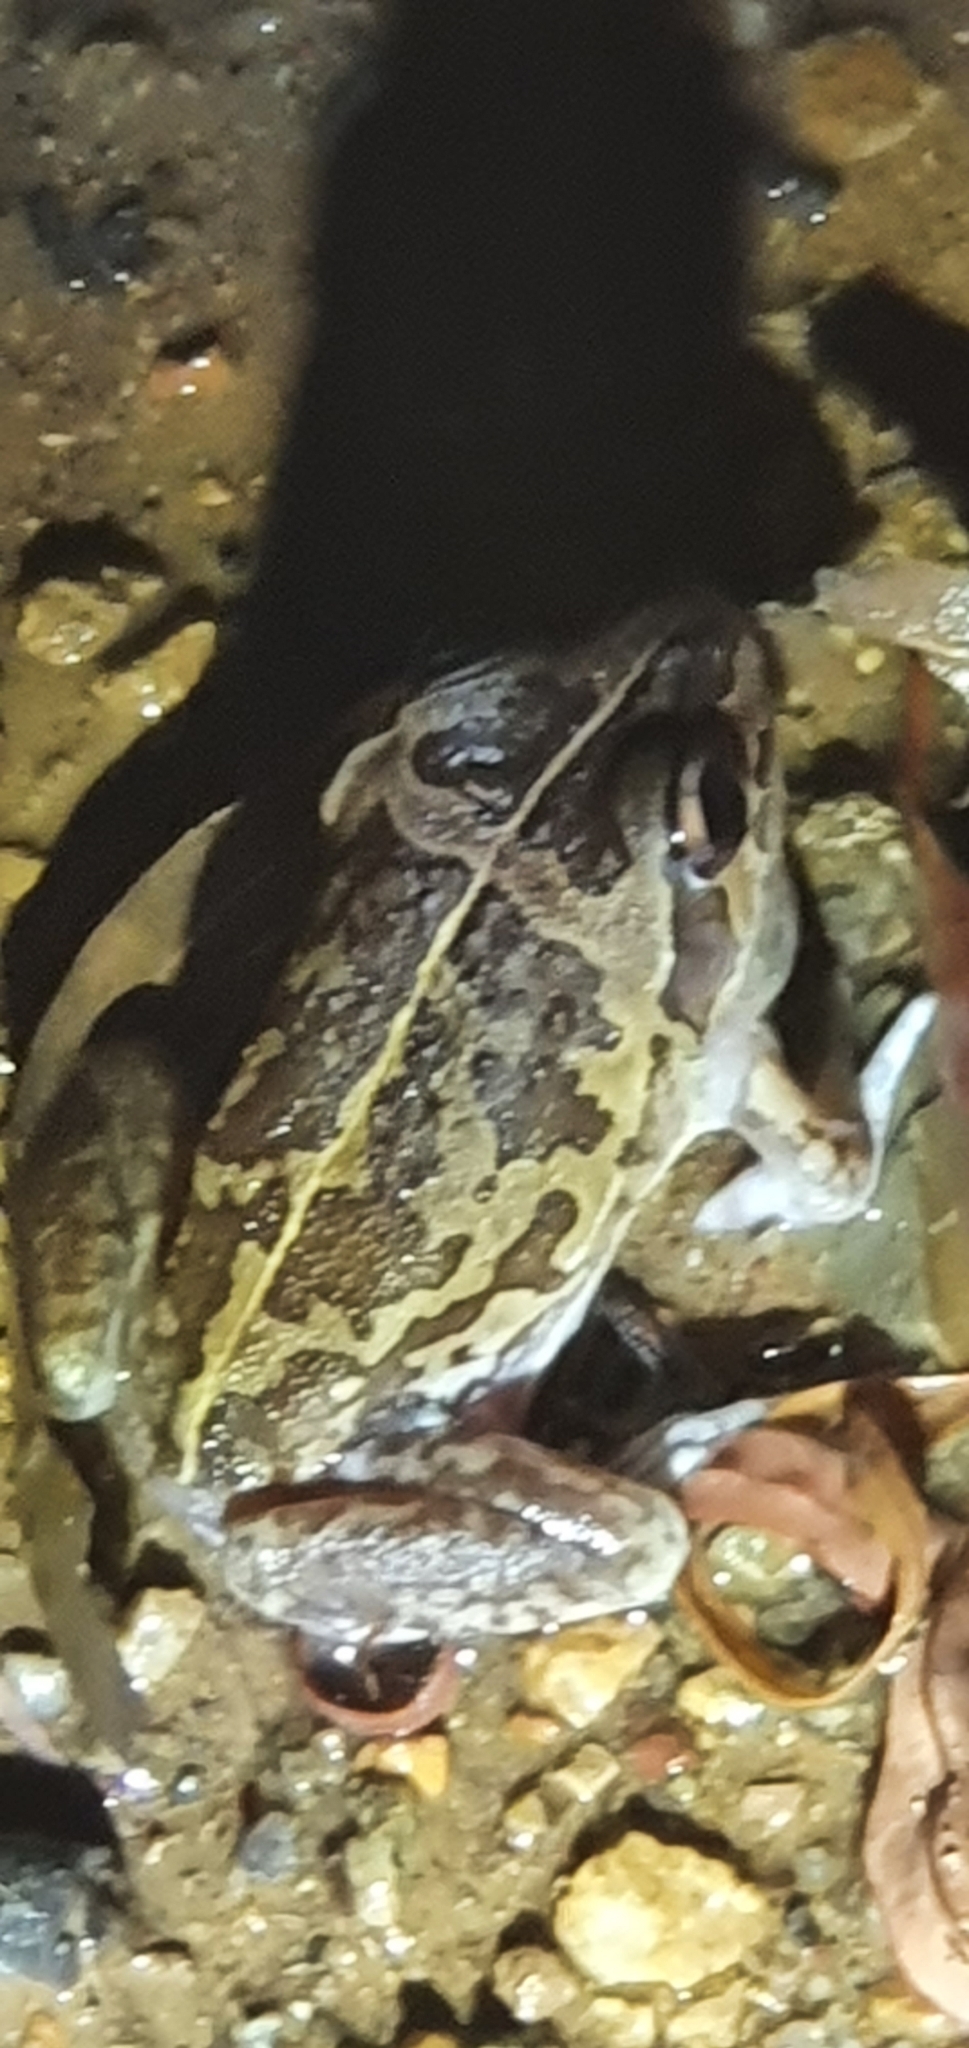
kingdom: Animalia
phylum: Chordata
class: Amphibia
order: Anura
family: Pelodryadidae
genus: Ranoidea
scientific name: Ranoidea brevipes
